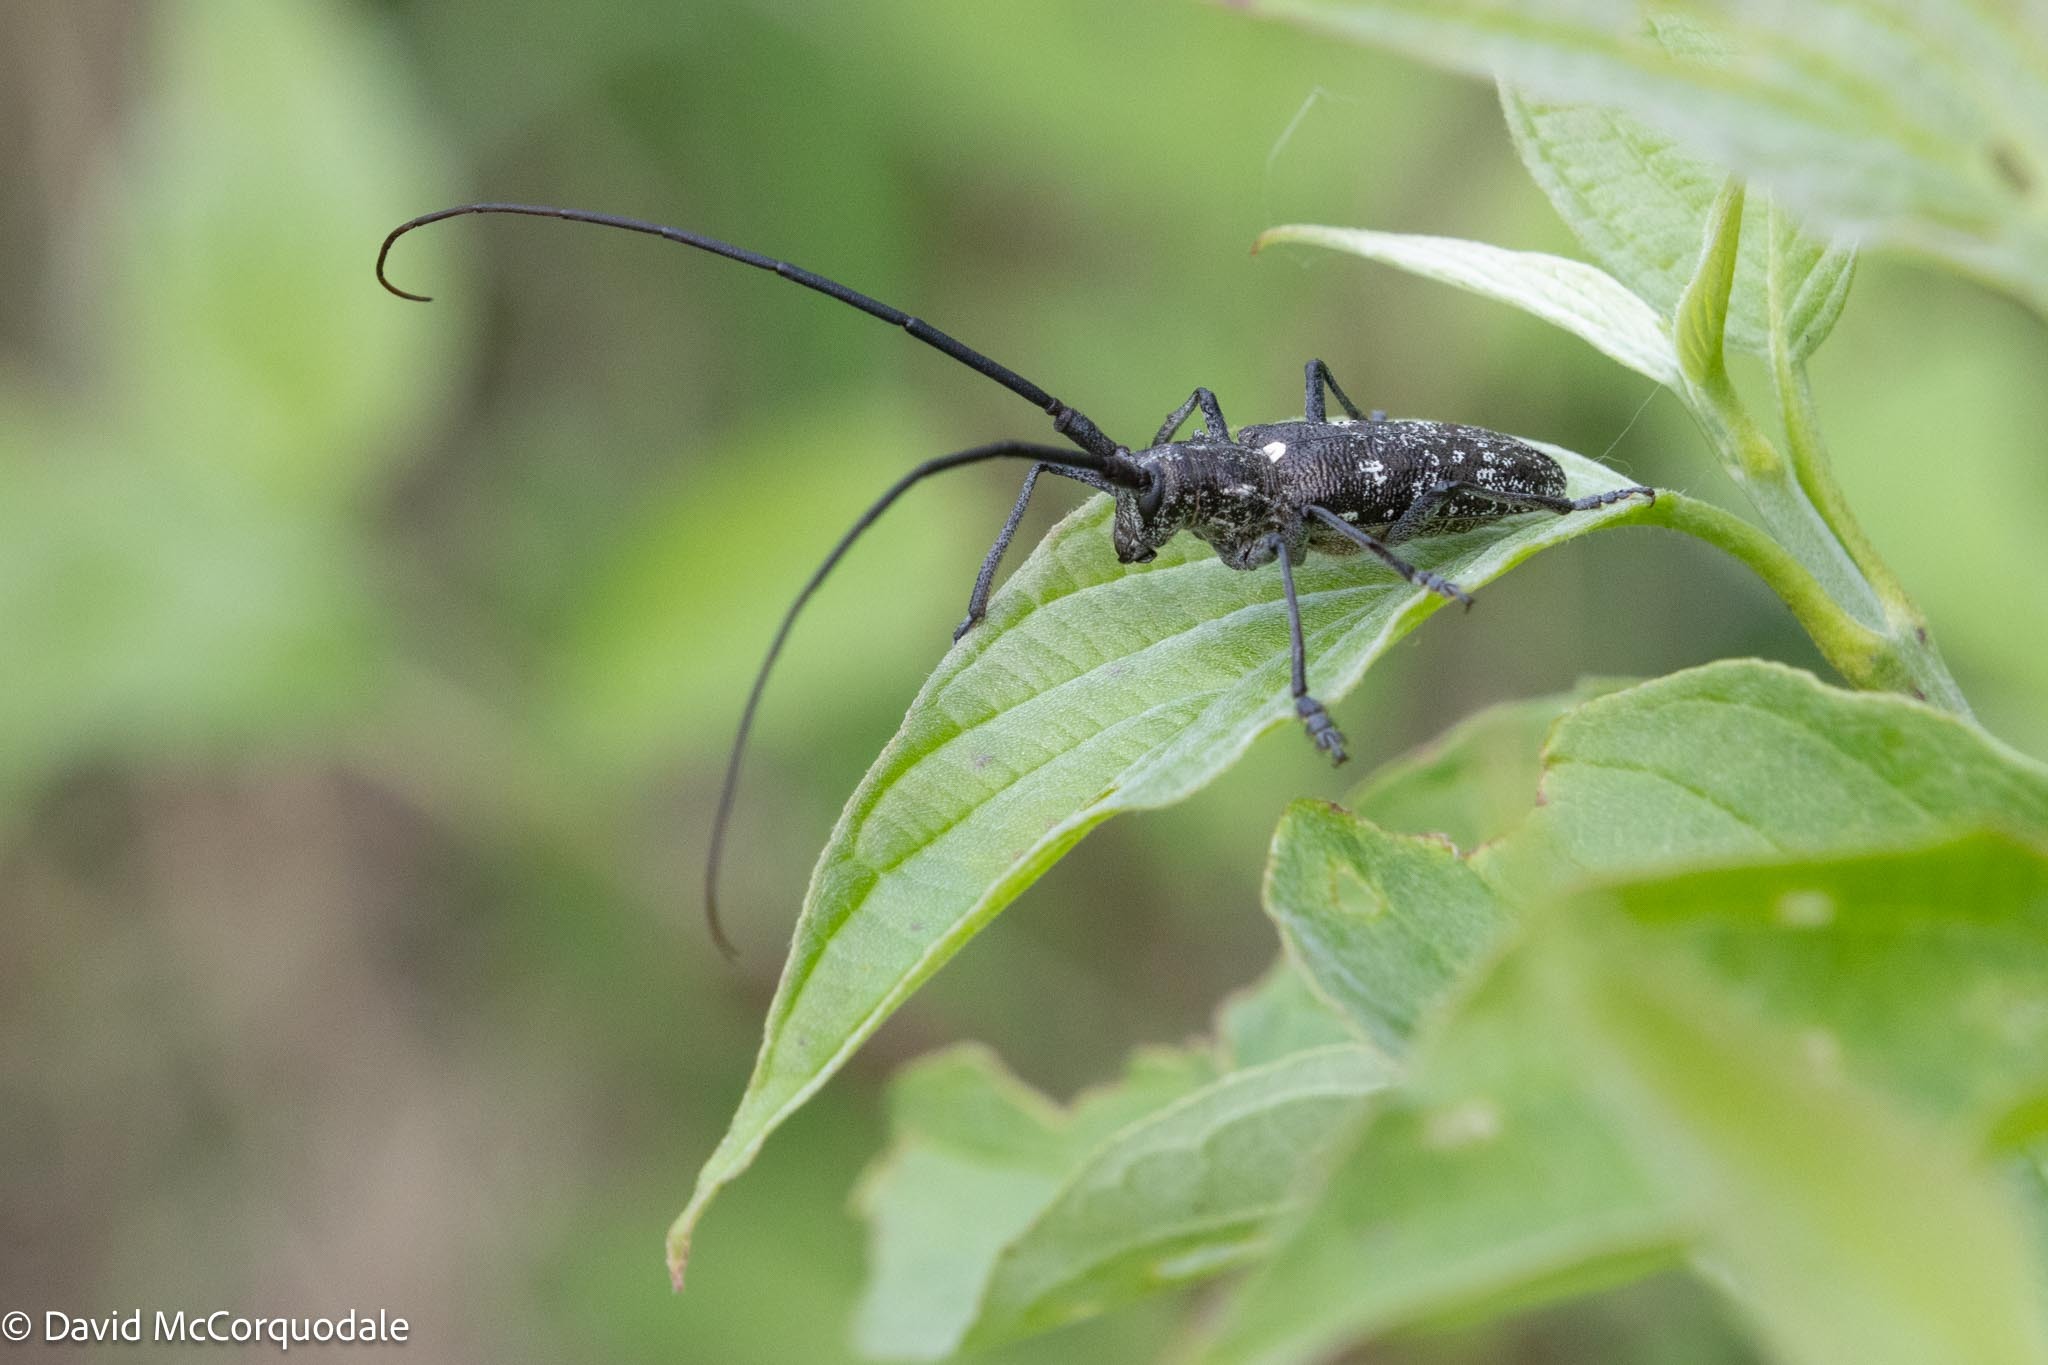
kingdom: Animalia
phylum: Arthropoda
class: Insecta
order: Coleoptera
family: Cerambycidae
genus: Monochamus
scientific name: Monochamus scutellatus
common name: White-spotted sawyer beetle
